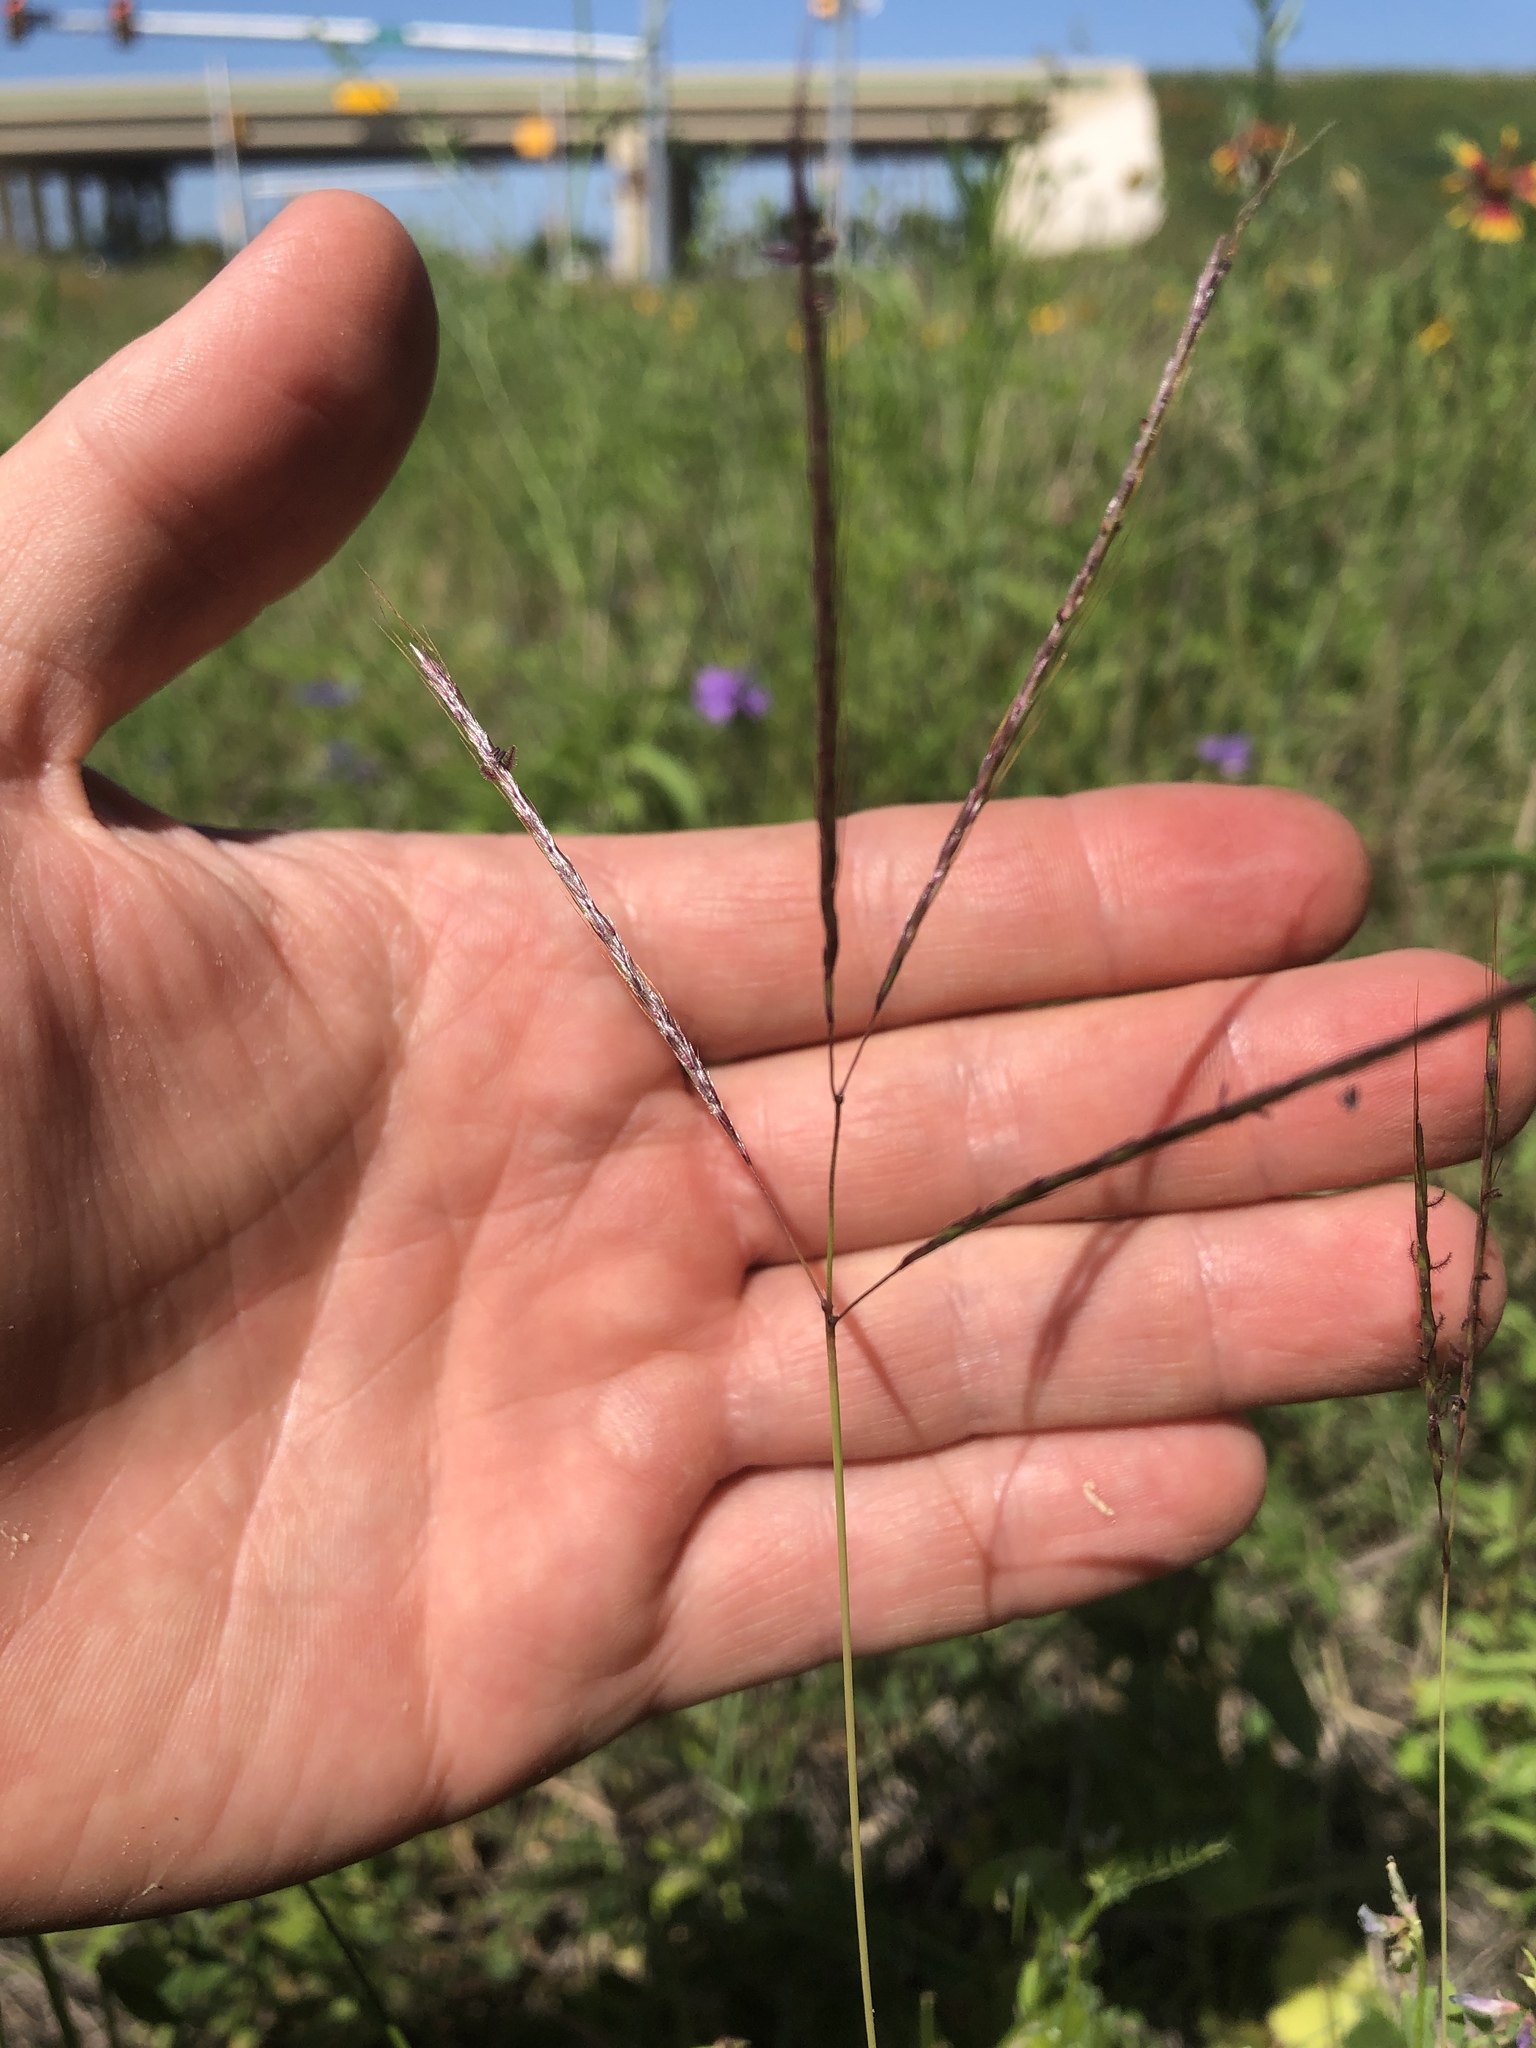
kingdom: Plantae
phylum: Tracheophyta
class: Liliopsida
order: Poales
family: Poaceae
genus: Bothriochloa
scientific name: Bothriochloa ischaemum
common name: Yellow bluestem
